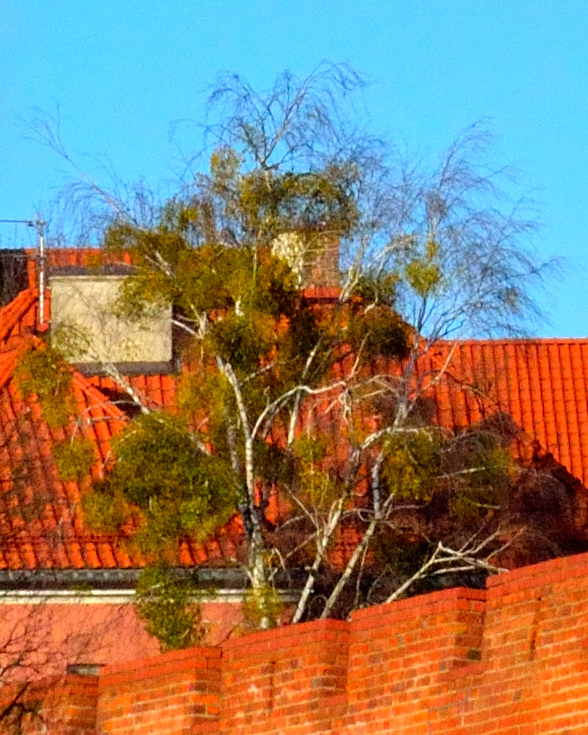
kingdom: Plantae
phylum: Tracheophyta
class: Magnoliopsida
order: Santalales
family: Viscaceae
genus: Viscum
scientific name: Viscum album
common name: Mistletoe
